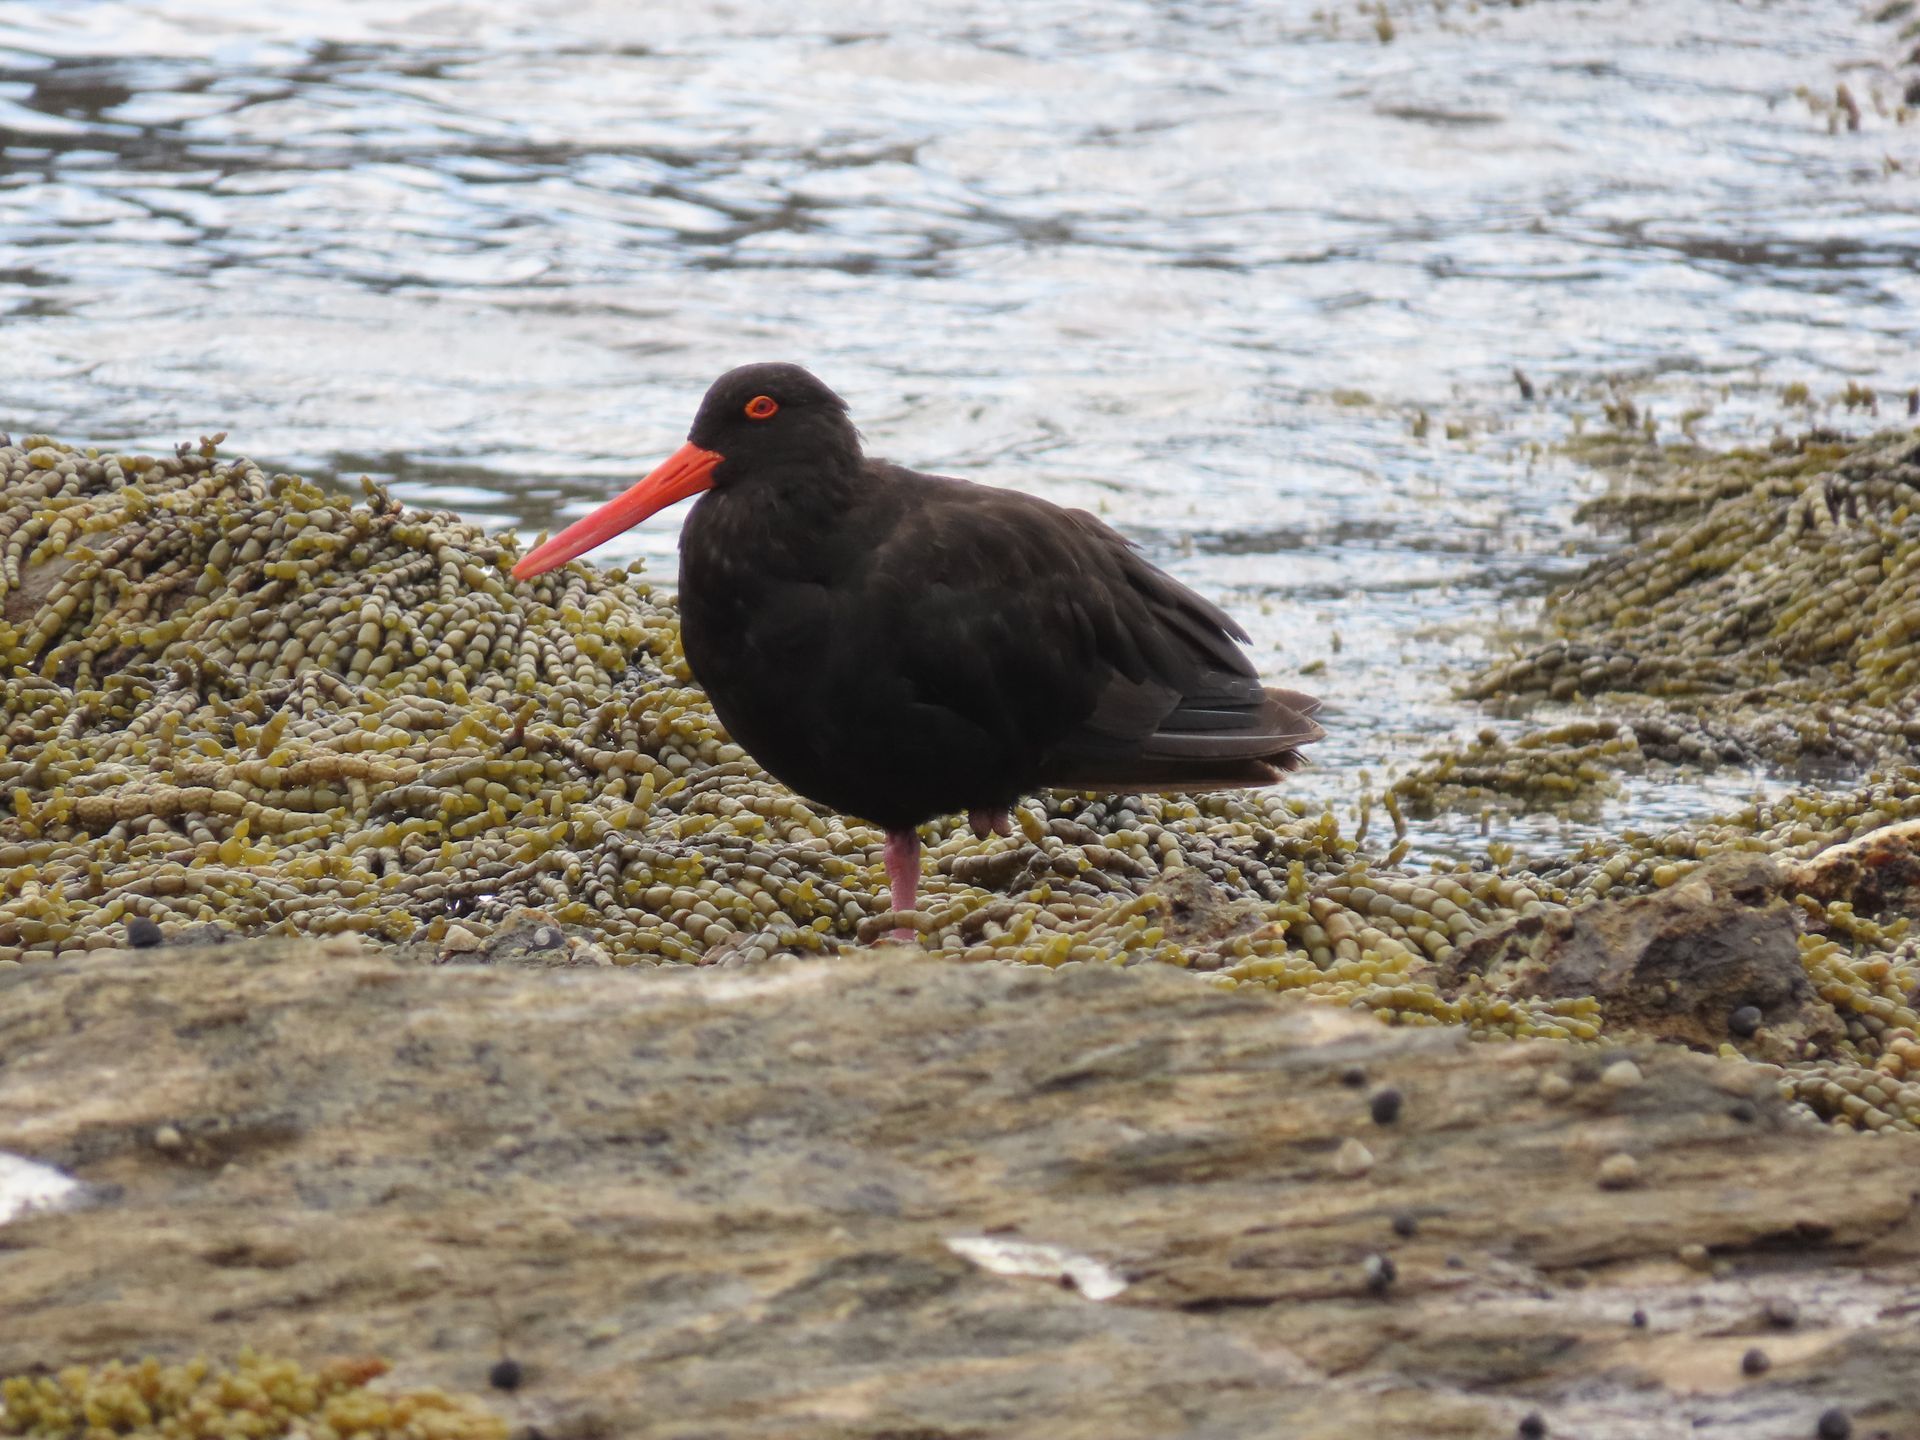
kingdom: Animalia
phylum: Chordata
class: Aves
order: Charadriiformes
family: Haematopodidae
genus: Haematopus
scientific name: Haematopus fuliginosus
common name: Sooty oystercatcher
